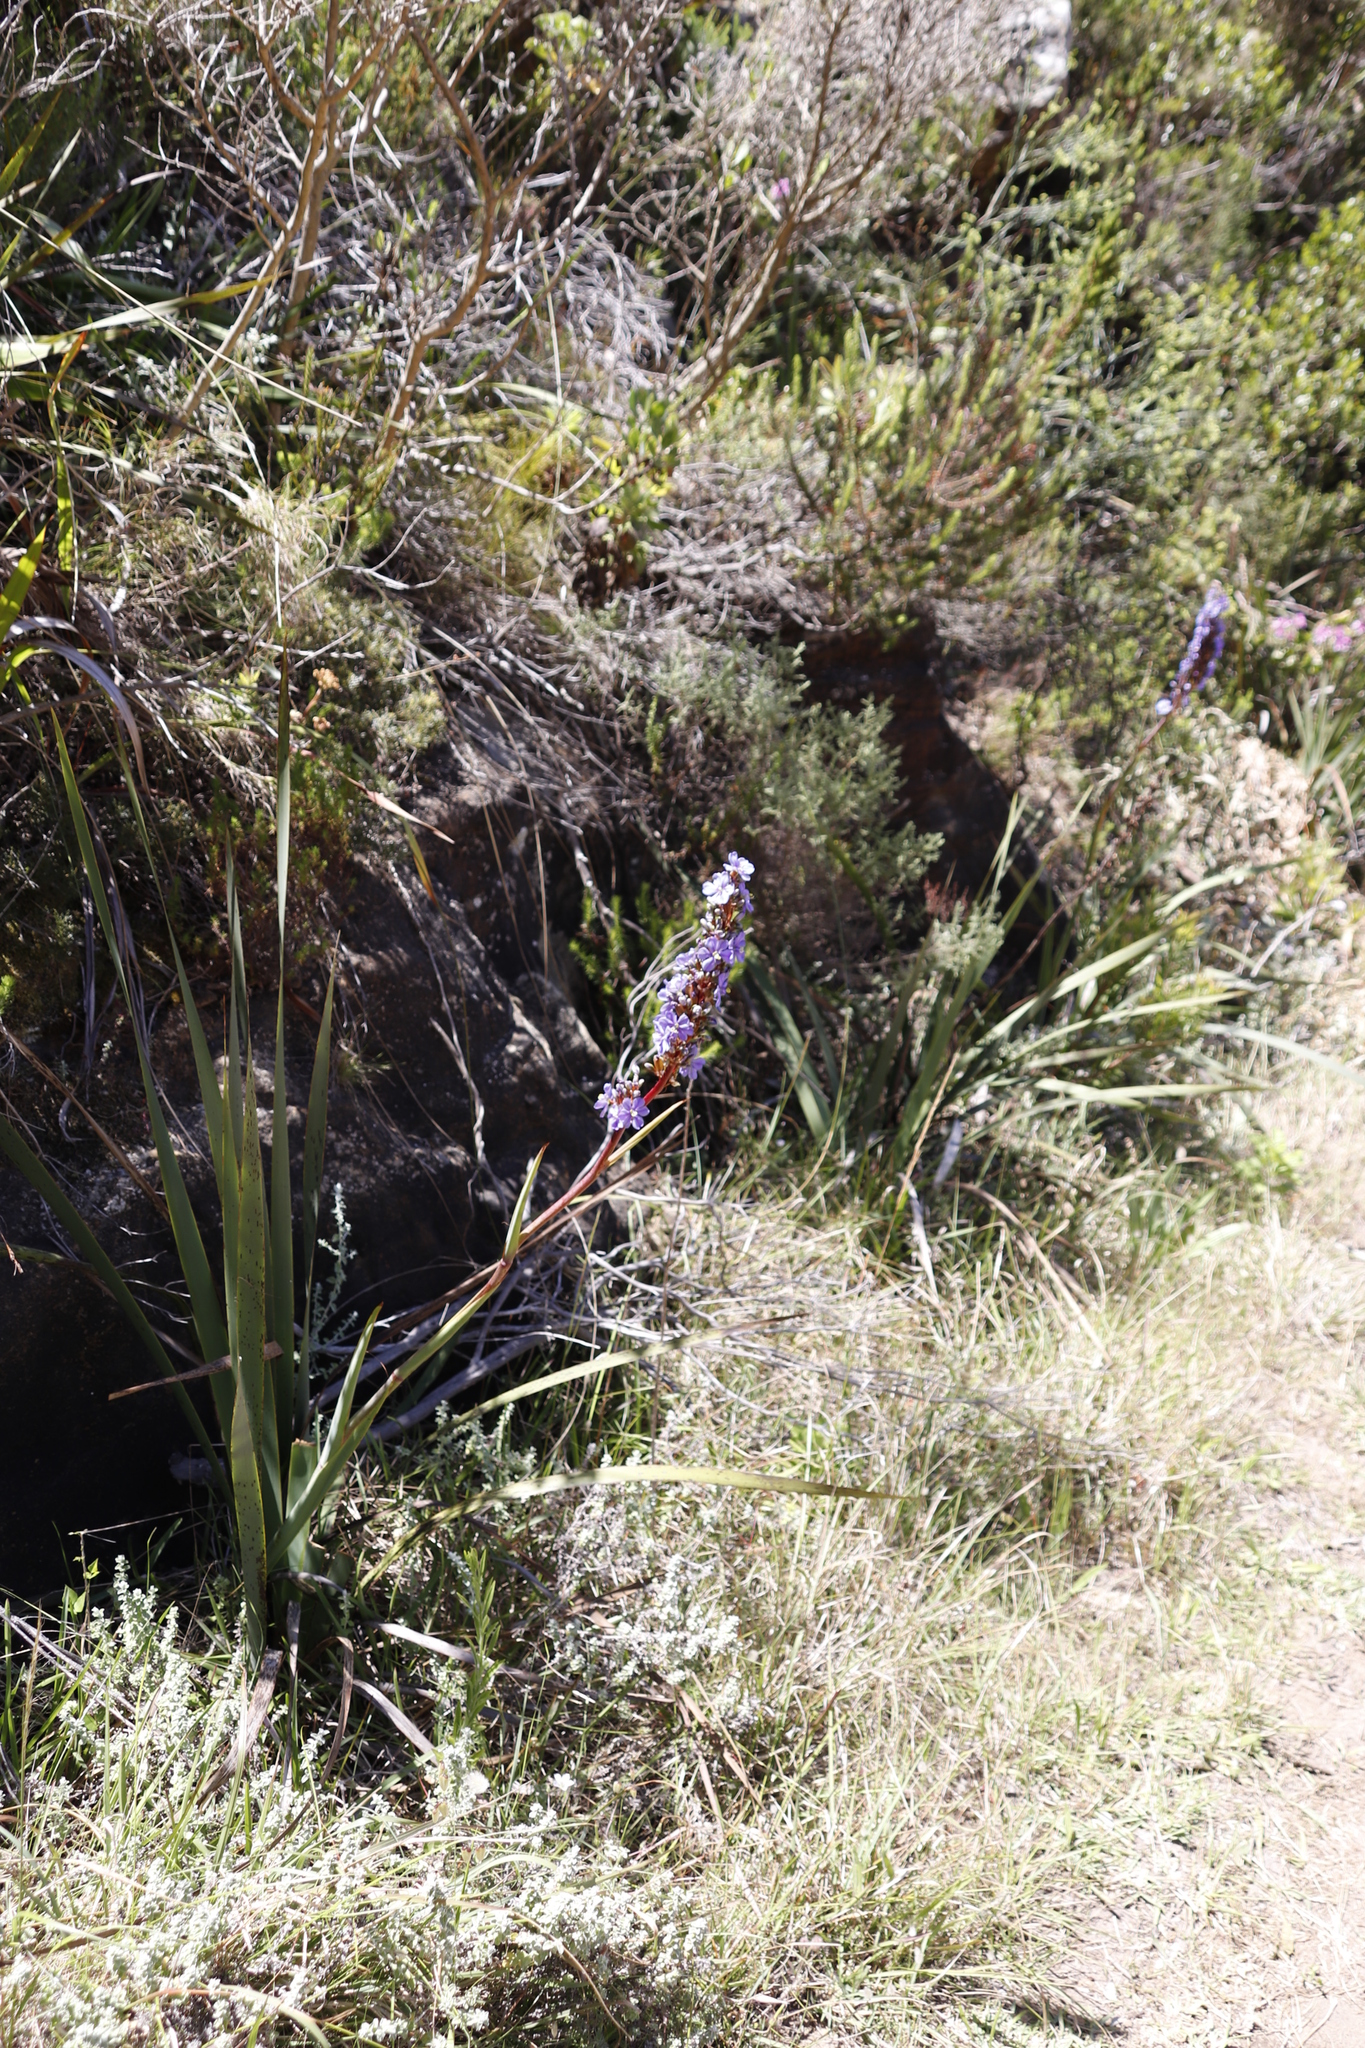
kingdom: Plantae
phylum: Tracheophyta
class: Liliopsida
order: Asparagales
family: Iridaceae
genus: Aristea
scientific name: Aristea capitata
